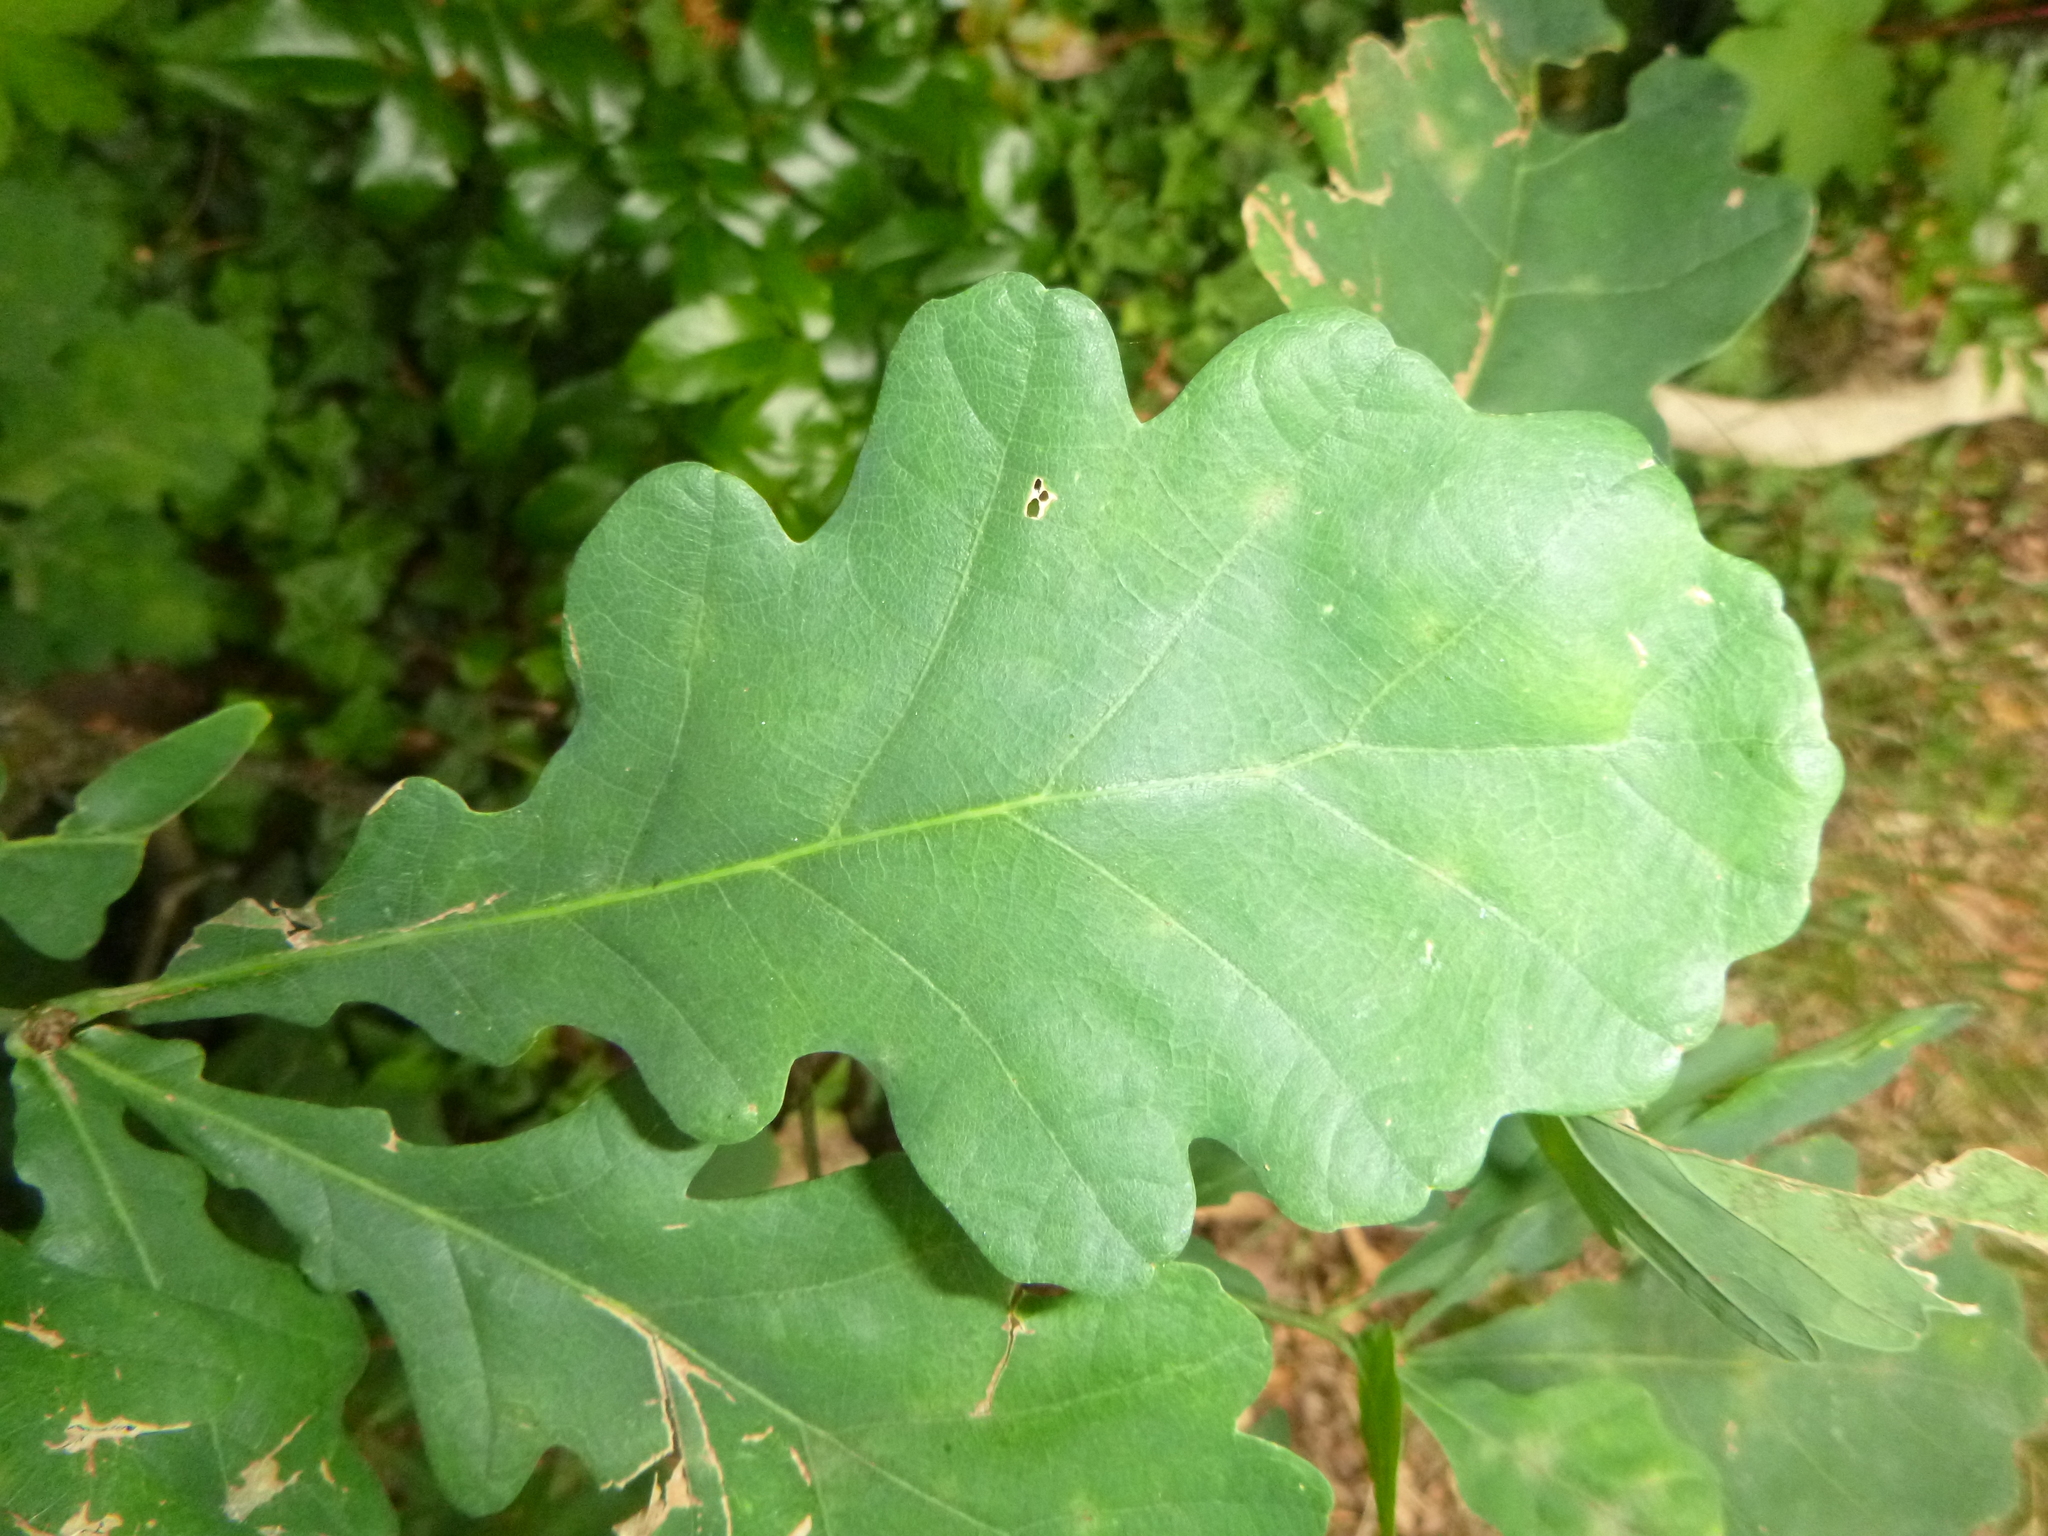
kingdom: Plantae
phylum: Tracheophyta
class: Magnoliopsida
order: Fagales
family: Fagaceae
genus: Quercus
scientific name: Quercus robur
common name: Pedunculate oak
